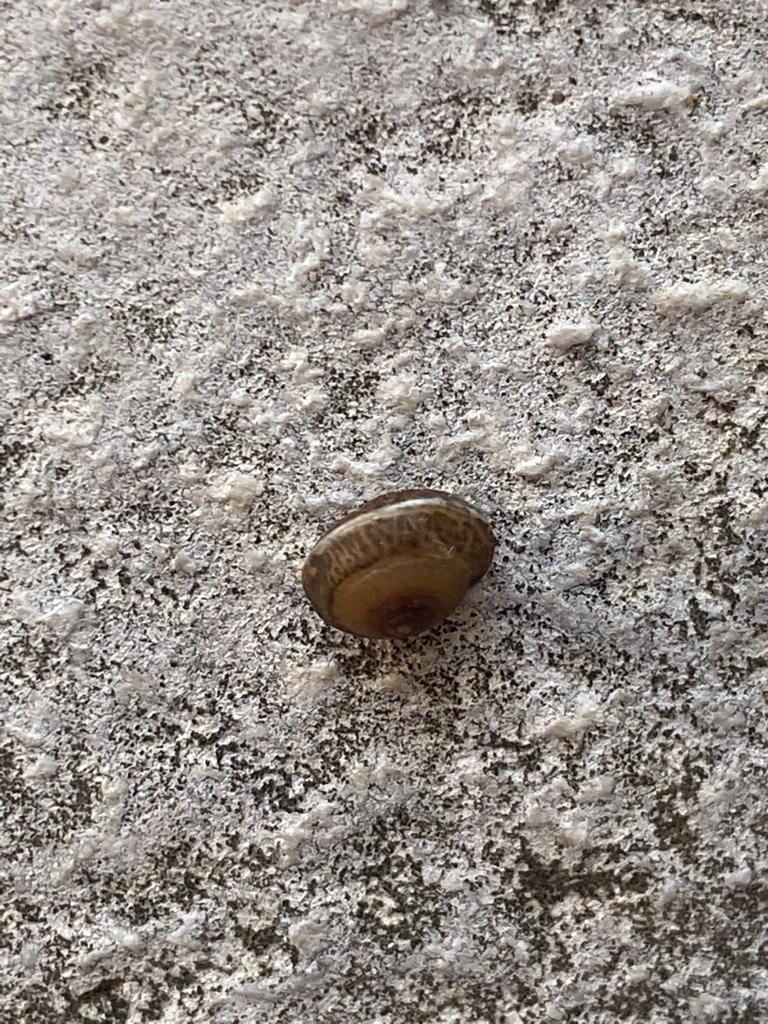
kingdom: Animalia
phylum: Mollusca
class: Gastropoda
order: Stylommatophora
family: Hygromiidae
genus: Hygromia
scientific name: Hygromia cinctella
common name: Girdled snail
